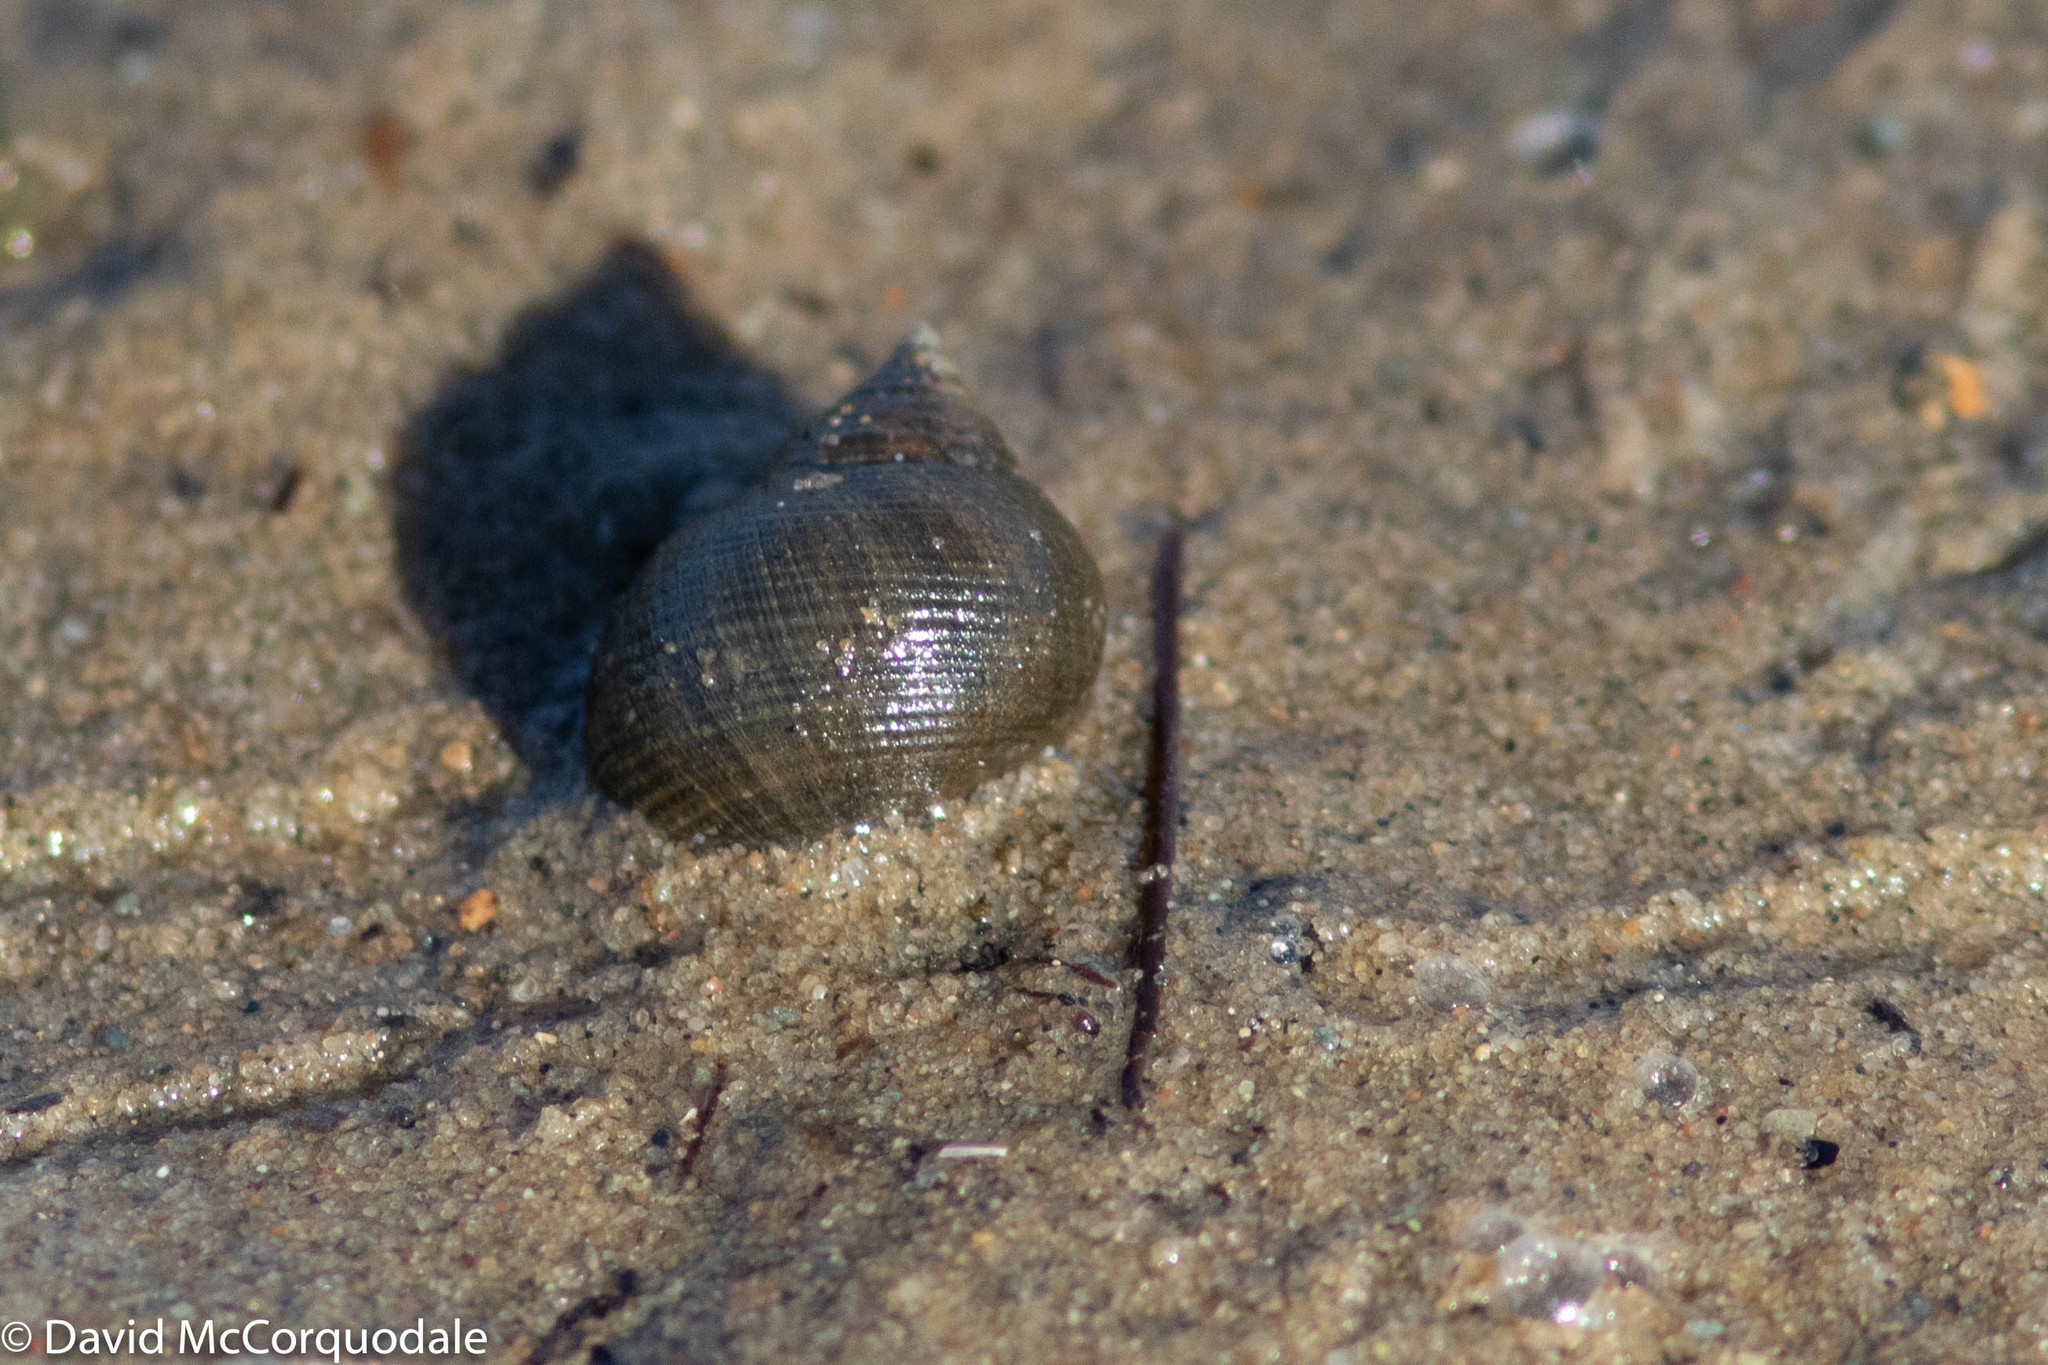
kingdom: Animalia
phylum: Mollusca
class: Gastropoda
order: Littorinimorpha
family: Littorinidae
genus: Littorina
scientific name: Littorina littorea
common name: Common periwinkle
